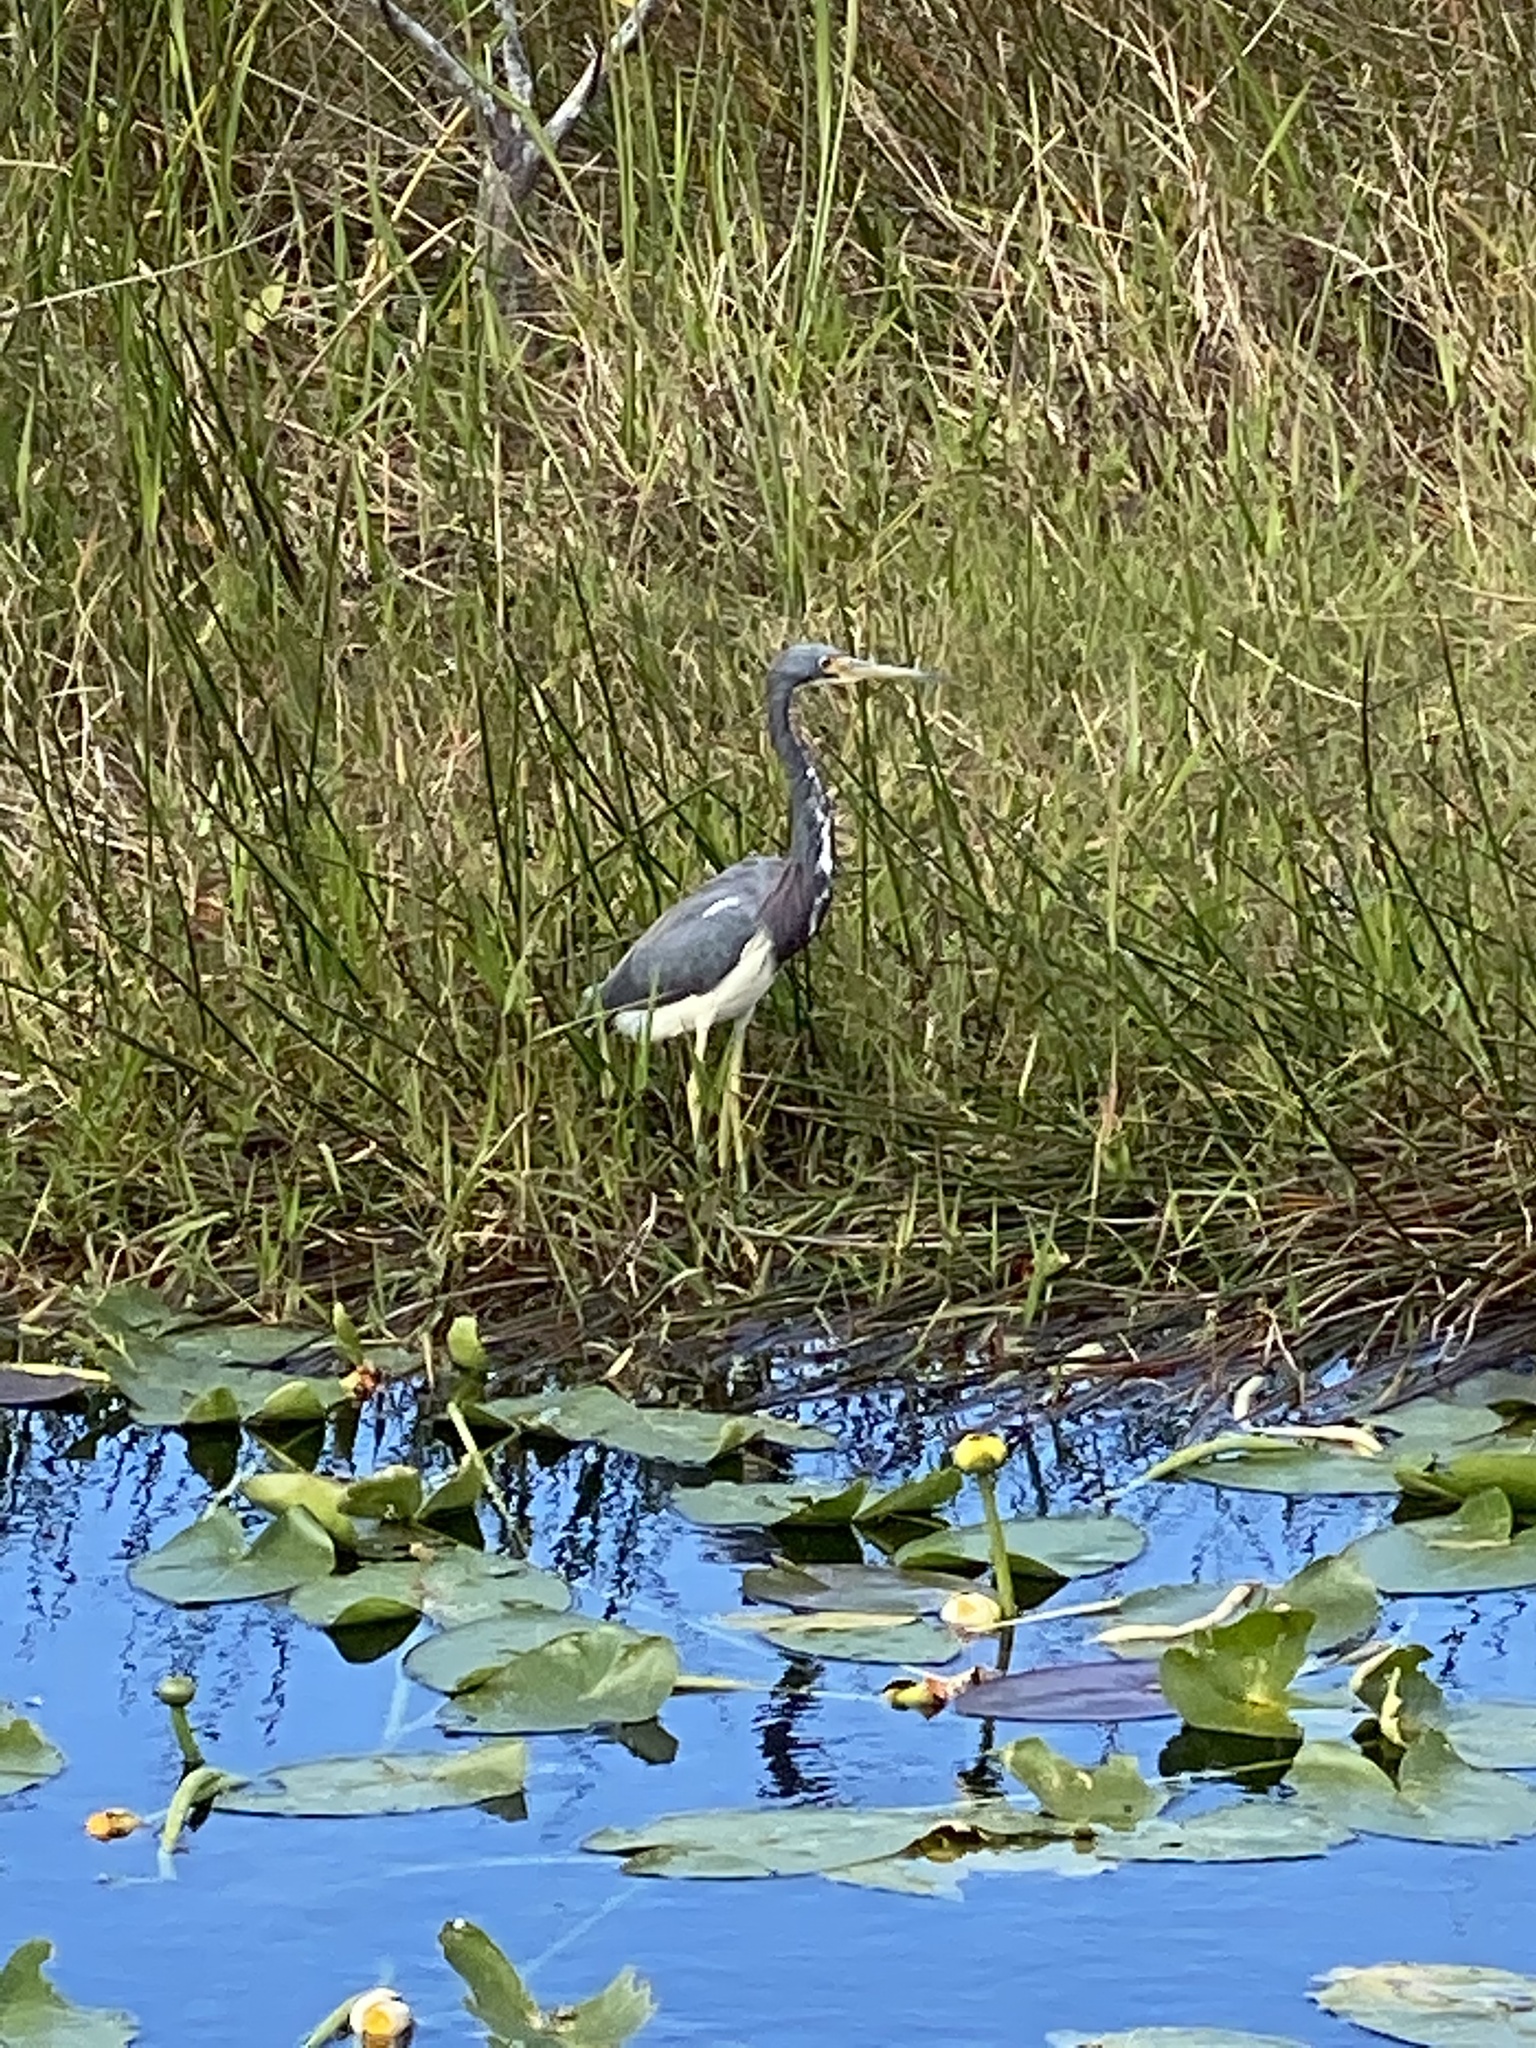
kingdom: Animalia
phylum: Chordata
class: Aves
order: Pelecaniformes
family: Ardeidae
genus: Egretta
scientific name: Egretta tricolor
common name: Tricolored heron
